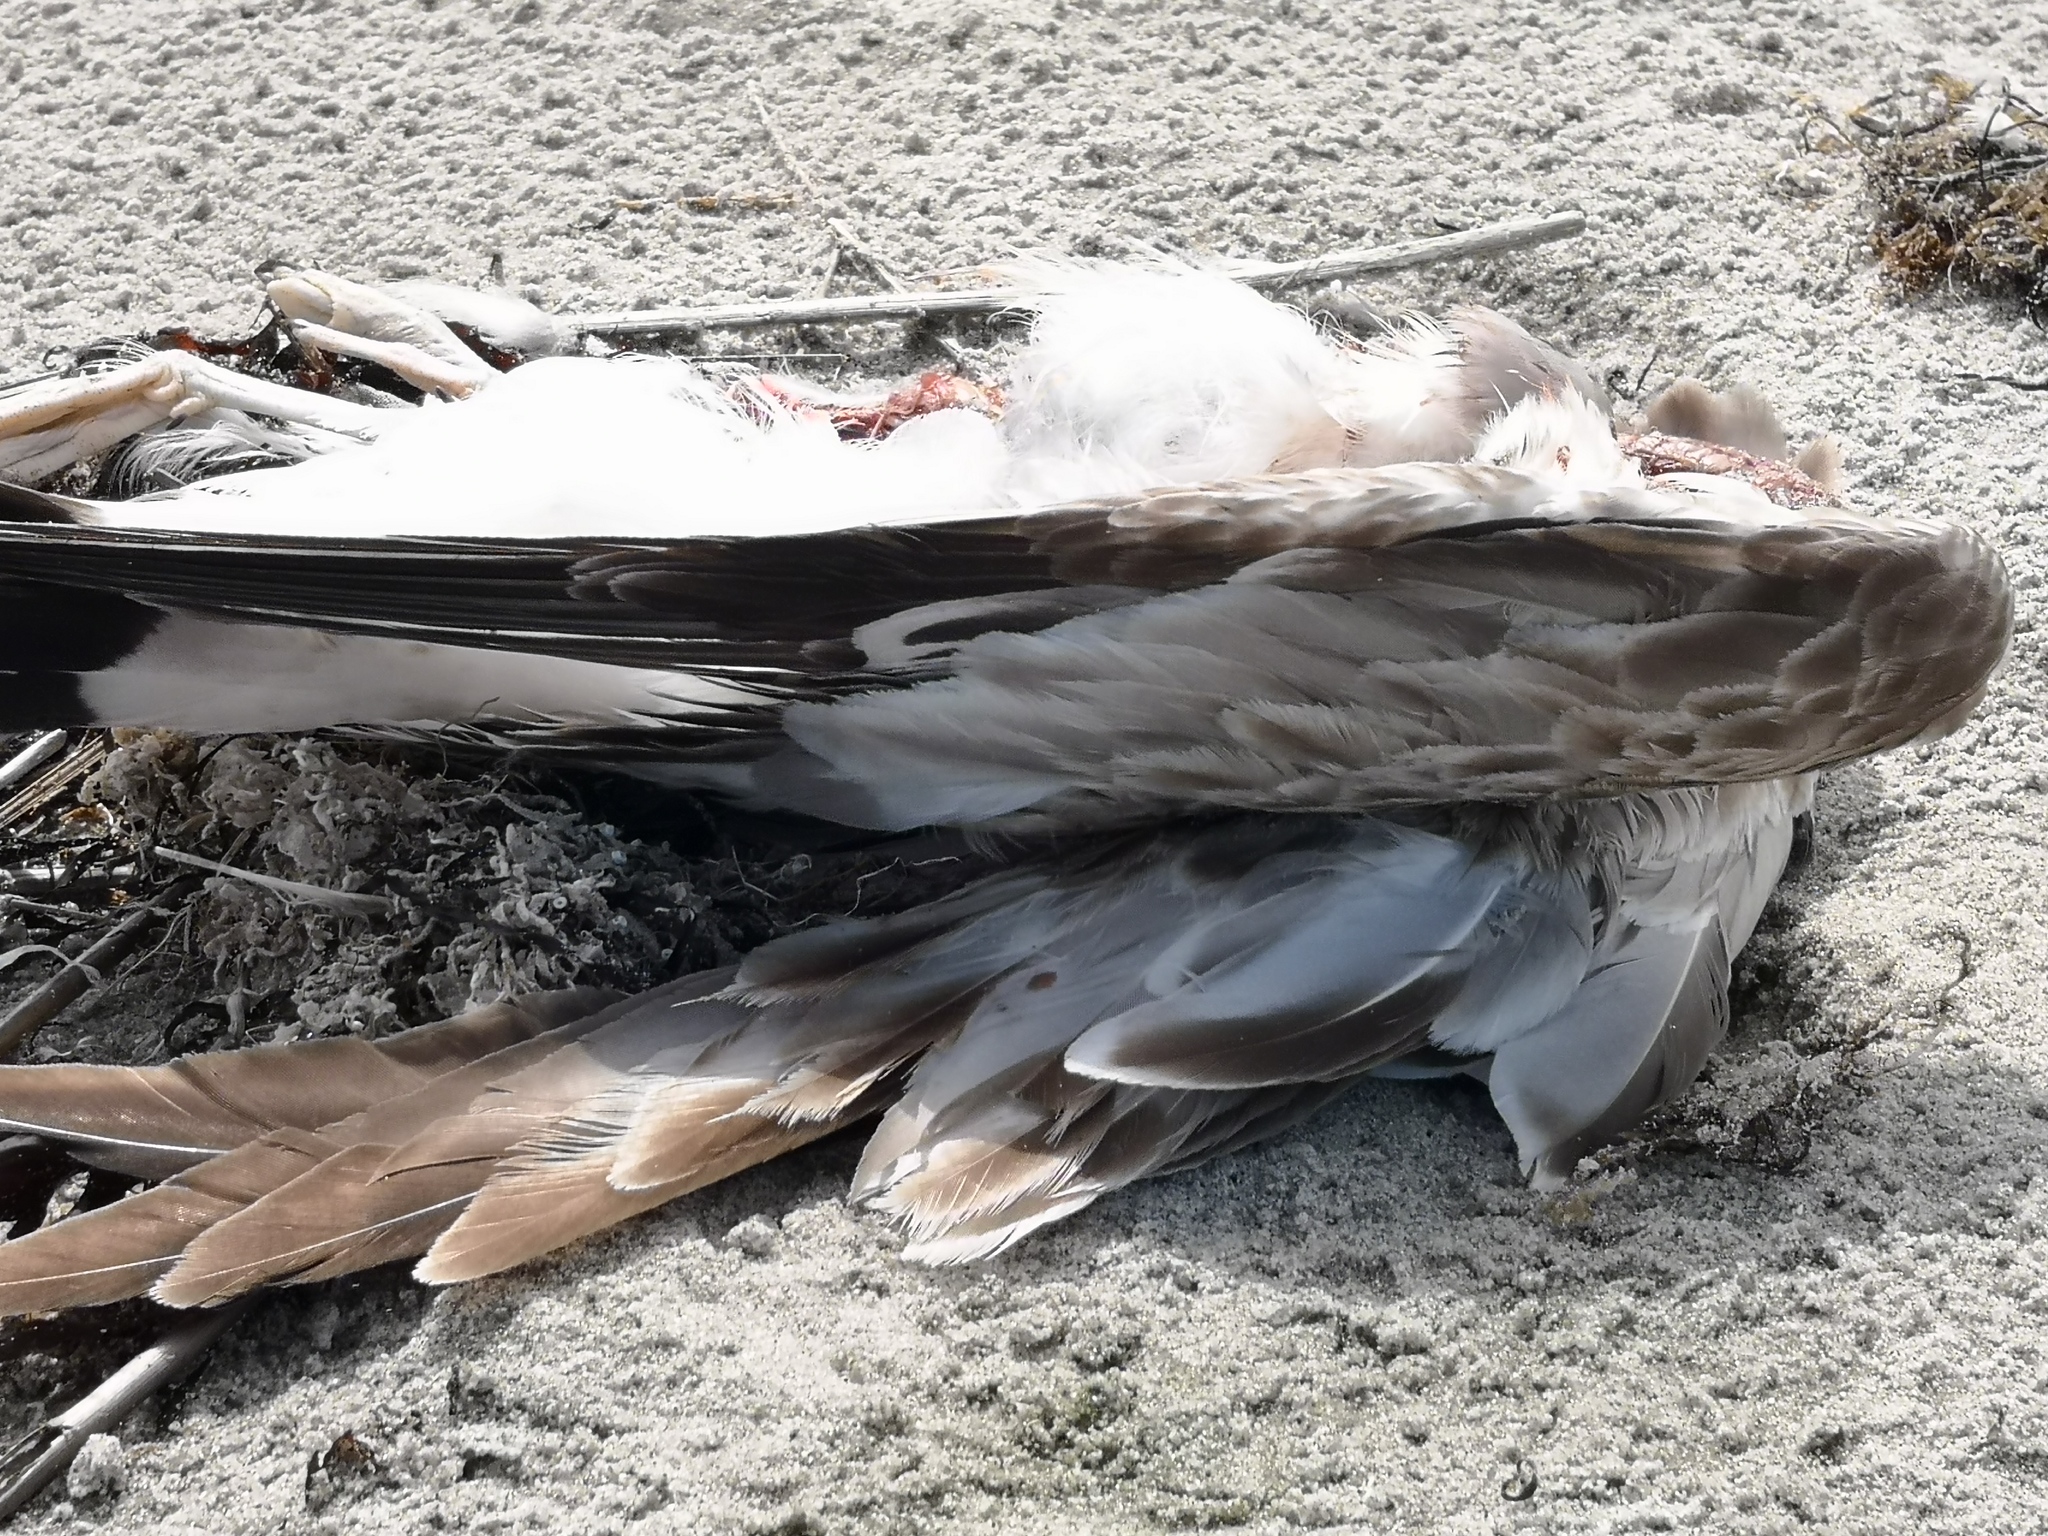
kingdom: Animalia
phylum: Chordata
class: Aves
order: Charadriiformes
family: Laridae
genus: Larus
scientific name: Larus canus
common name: Mew gull
